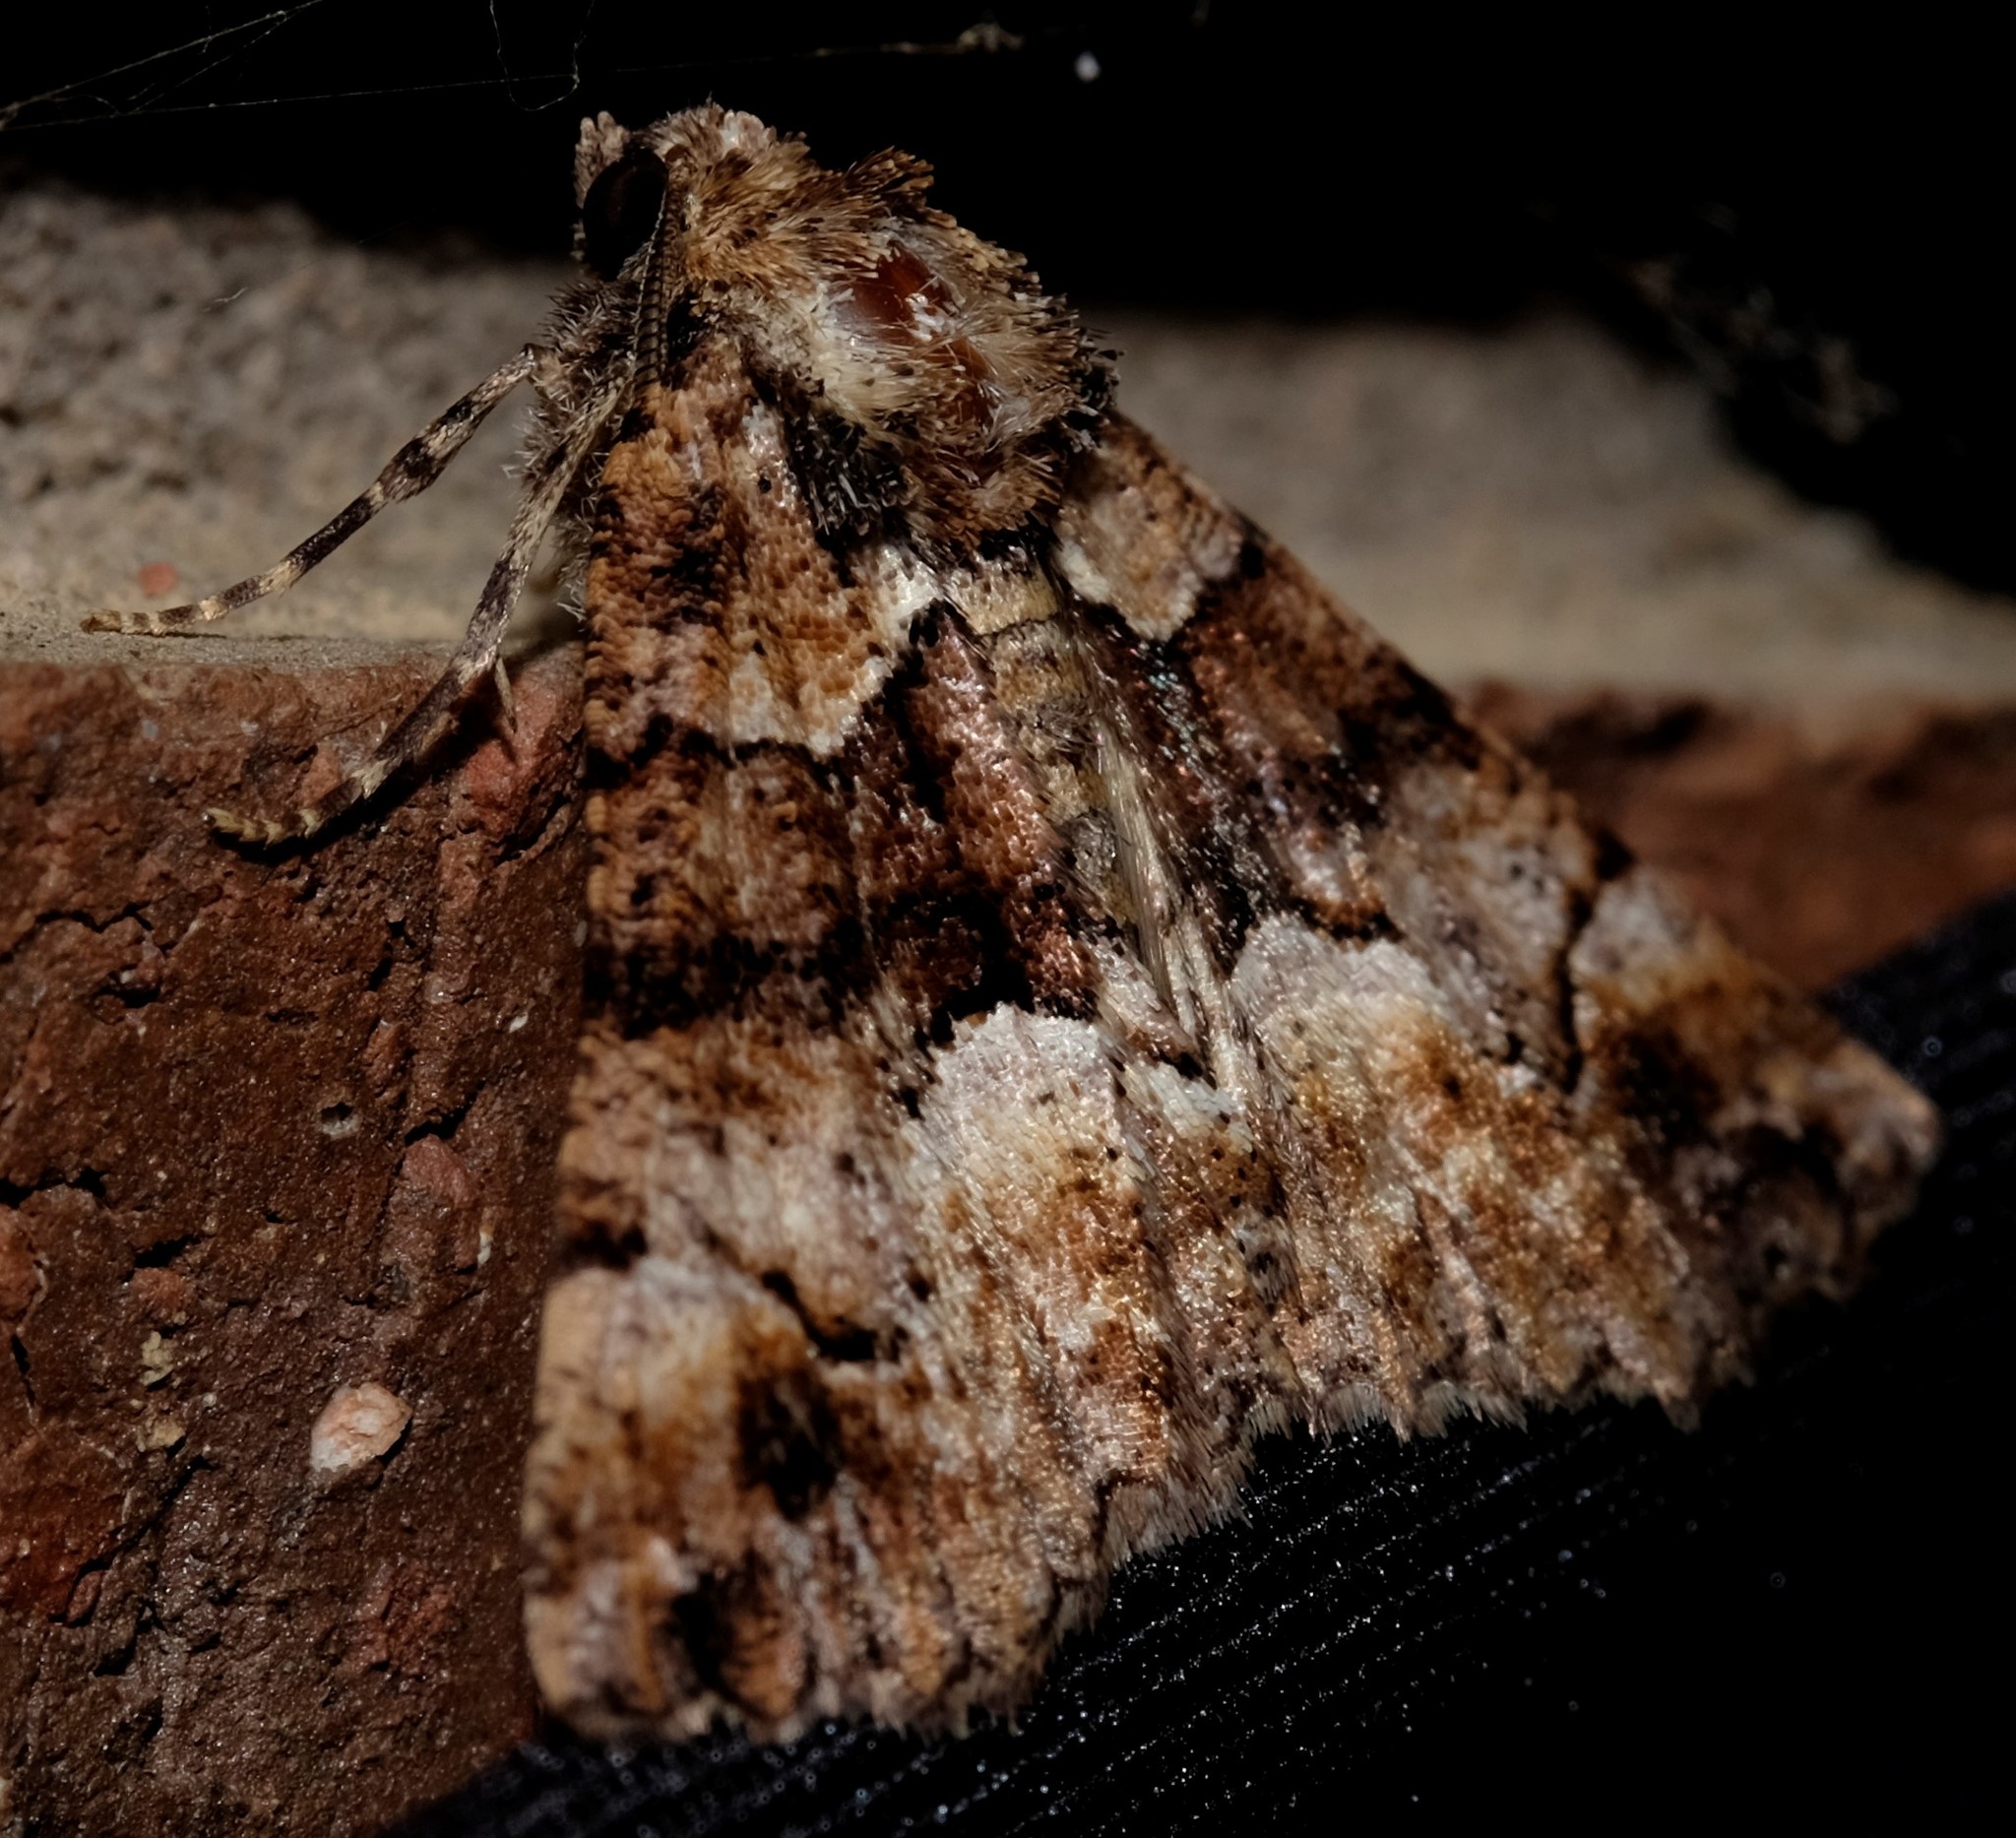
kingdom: Animalia
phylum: Arthropoda
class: Insecta
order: Lepidoptera
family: Geometridae
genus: Gastrina
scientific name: Gastrina cristaria
